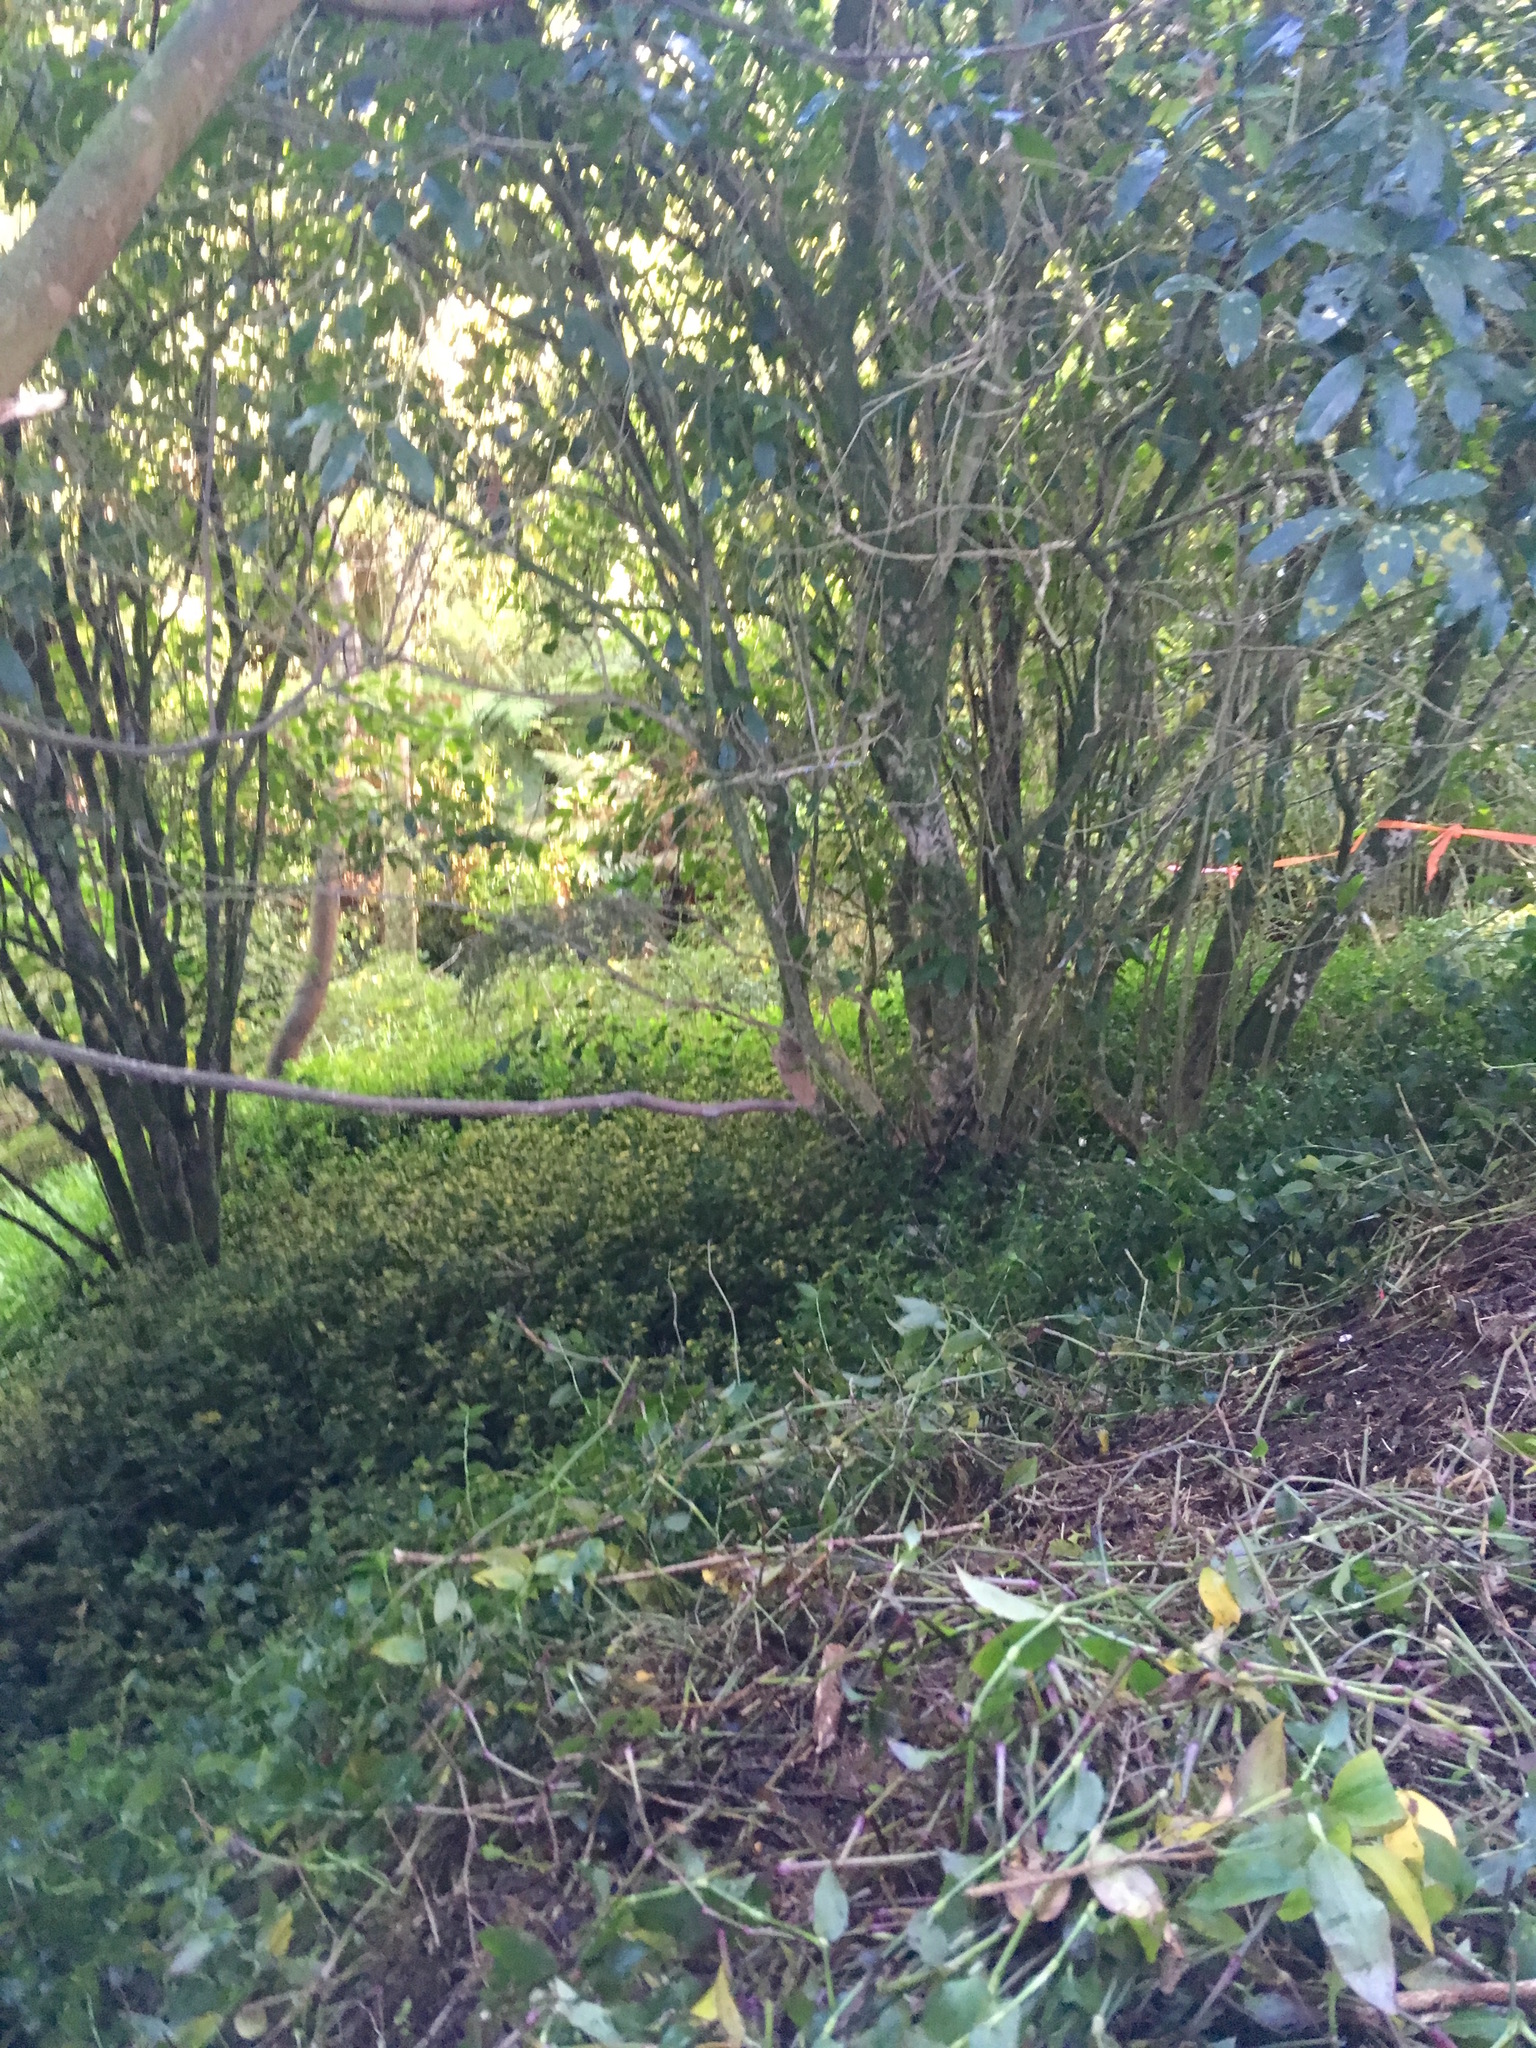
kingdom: Plantae
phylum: Tracheophyta
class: Magnoliopsida
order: Malpighiales
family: Violaceae
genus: Melicytus
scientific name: Melicytus ramiflorus
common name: Mahoe
